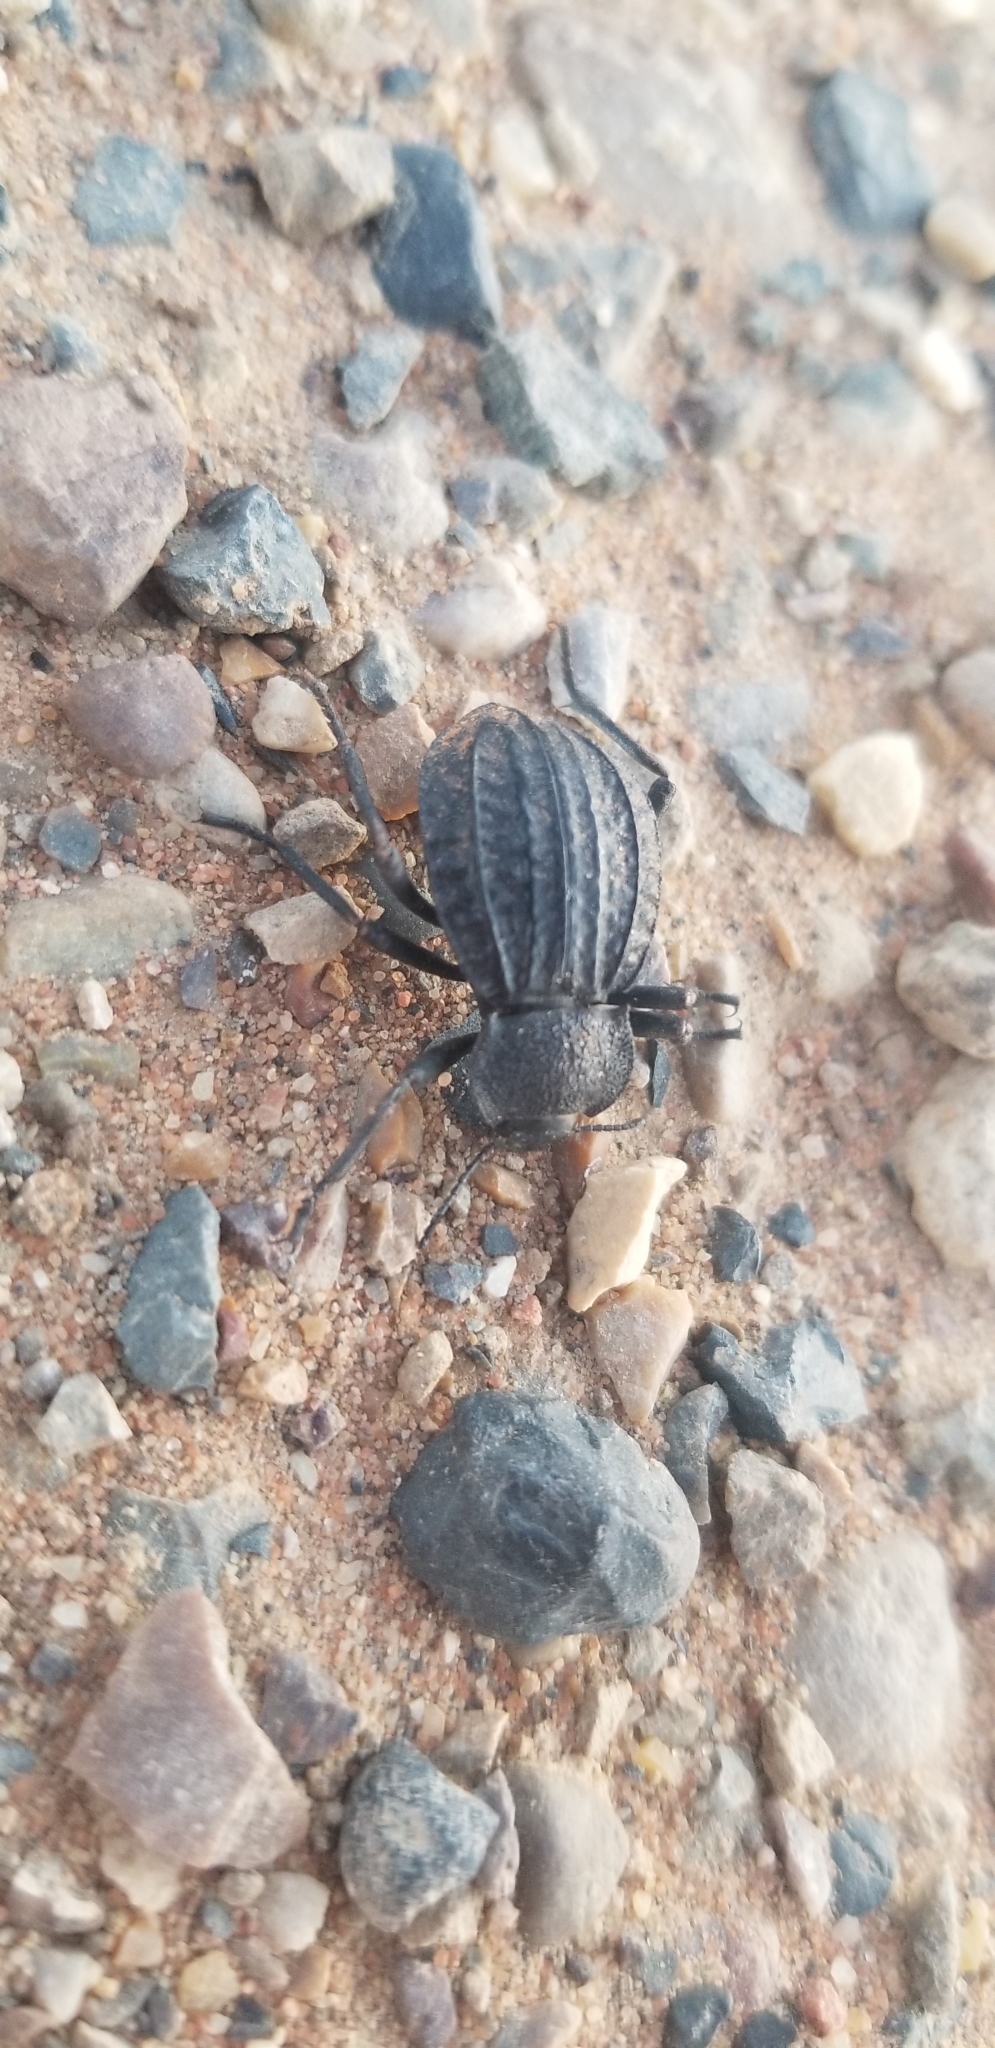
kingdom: Animalia
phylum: Arthropoda
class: Insecta
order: Coleoptera
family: Tenebrionidae
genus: Philolithus
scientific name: Philolithus sordidus
